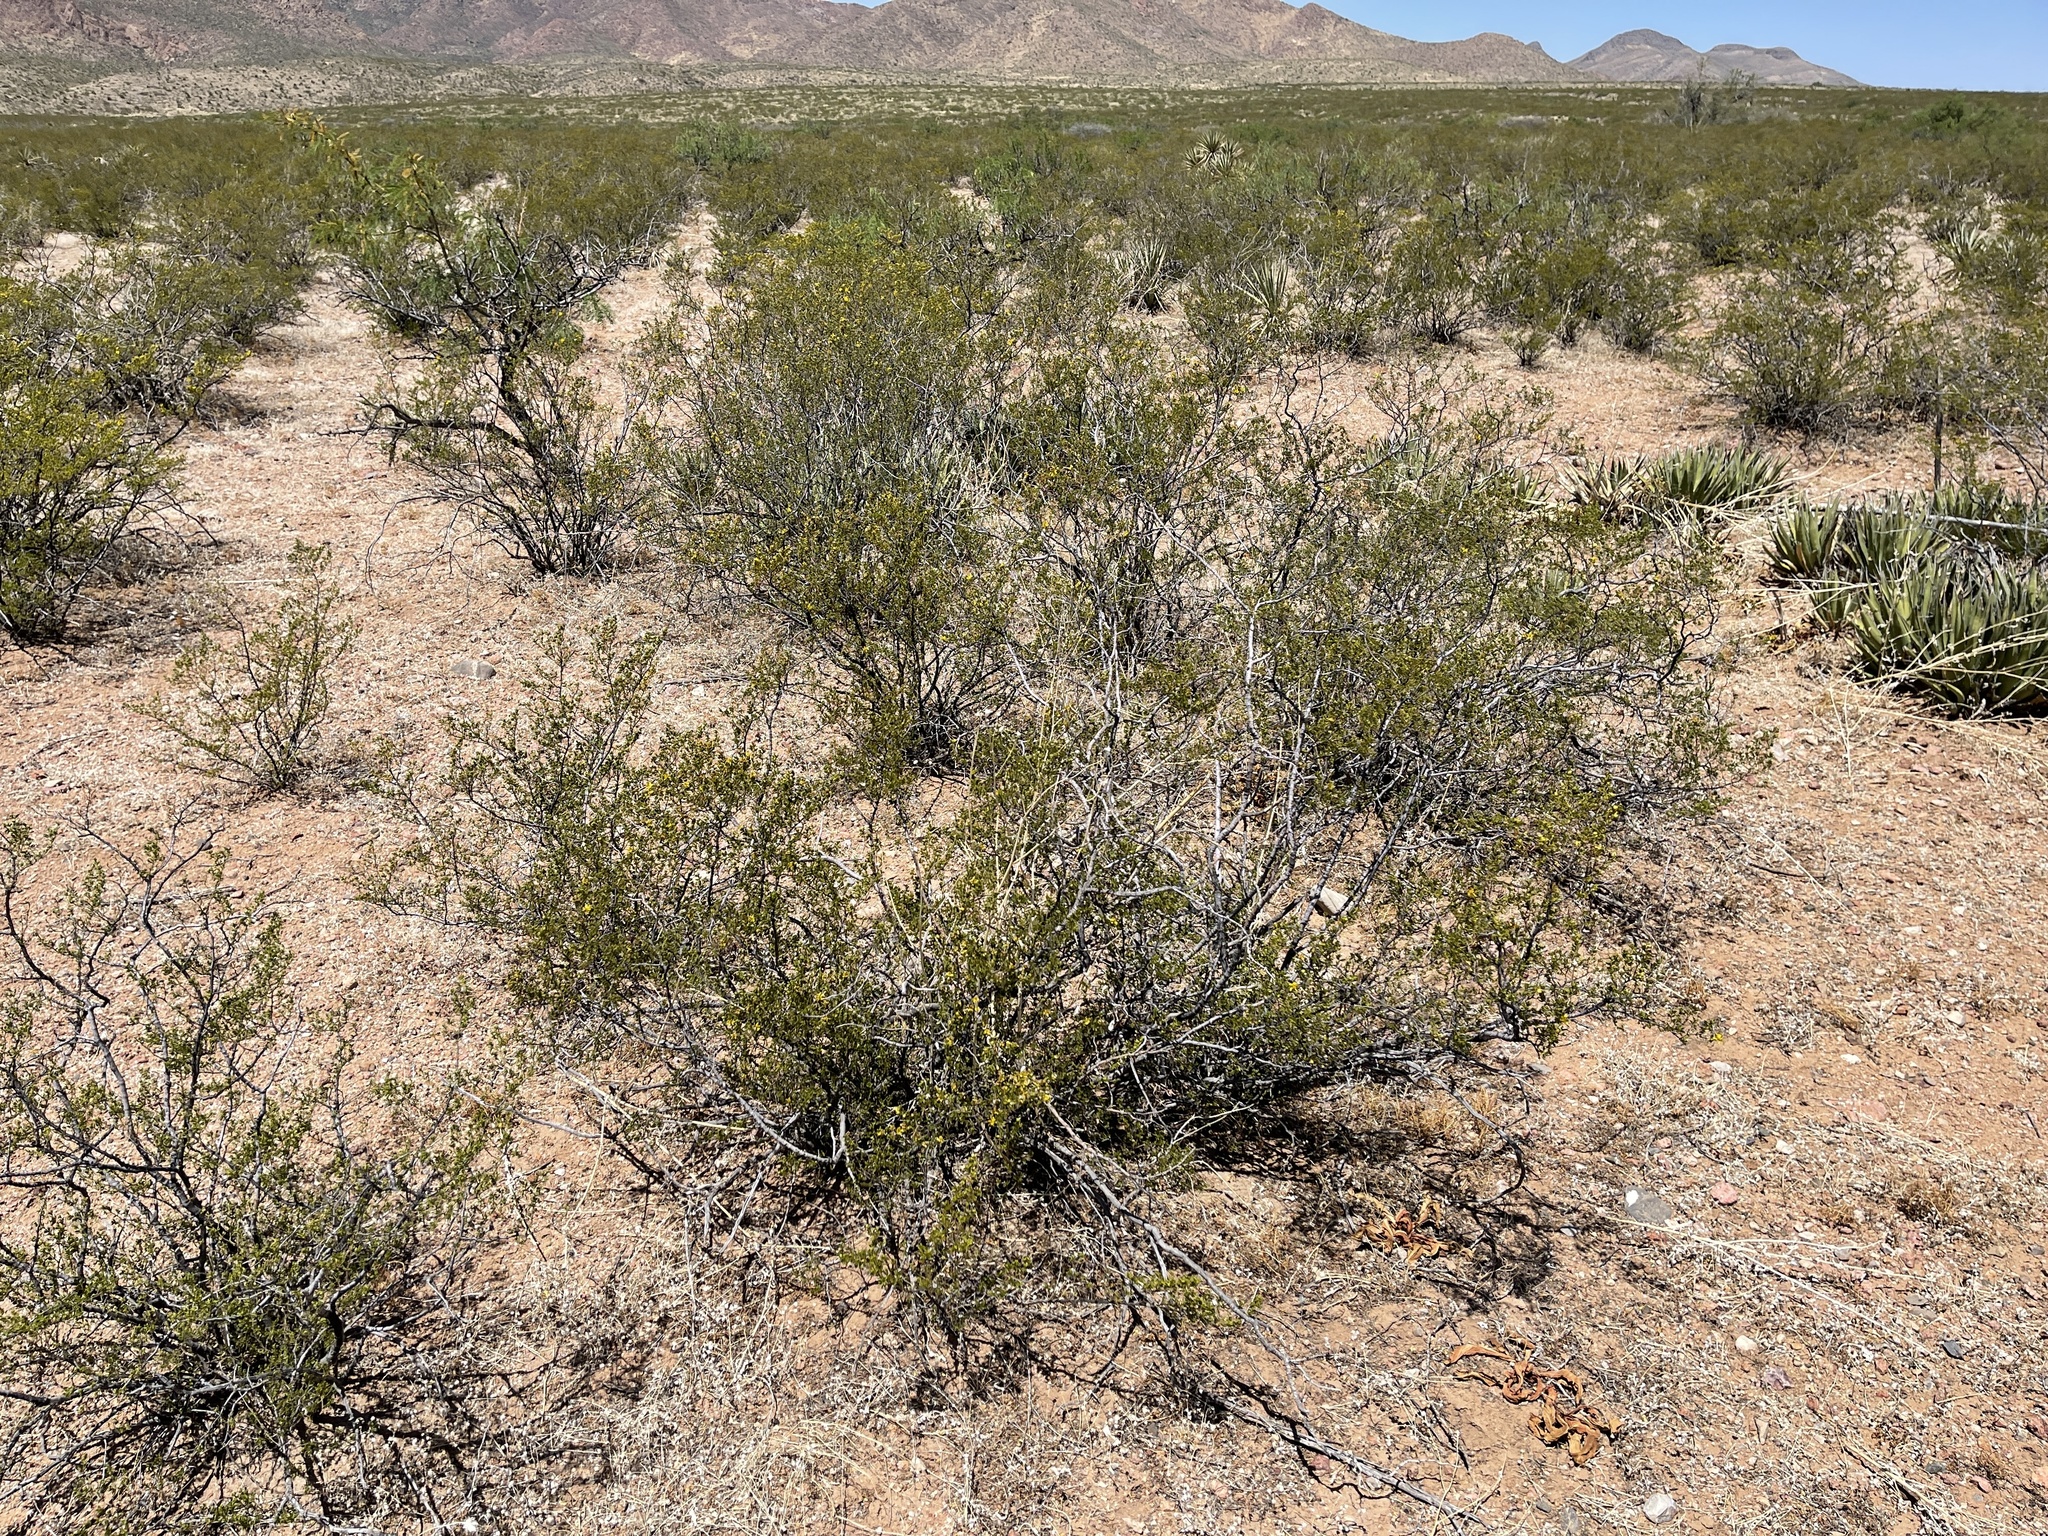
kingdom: Plantae
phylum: Tracheophyta
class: Magnoliopsida
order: Zygophyllales
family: Zygophyllaceae
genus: Larrea
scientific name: Larrea tridentata
